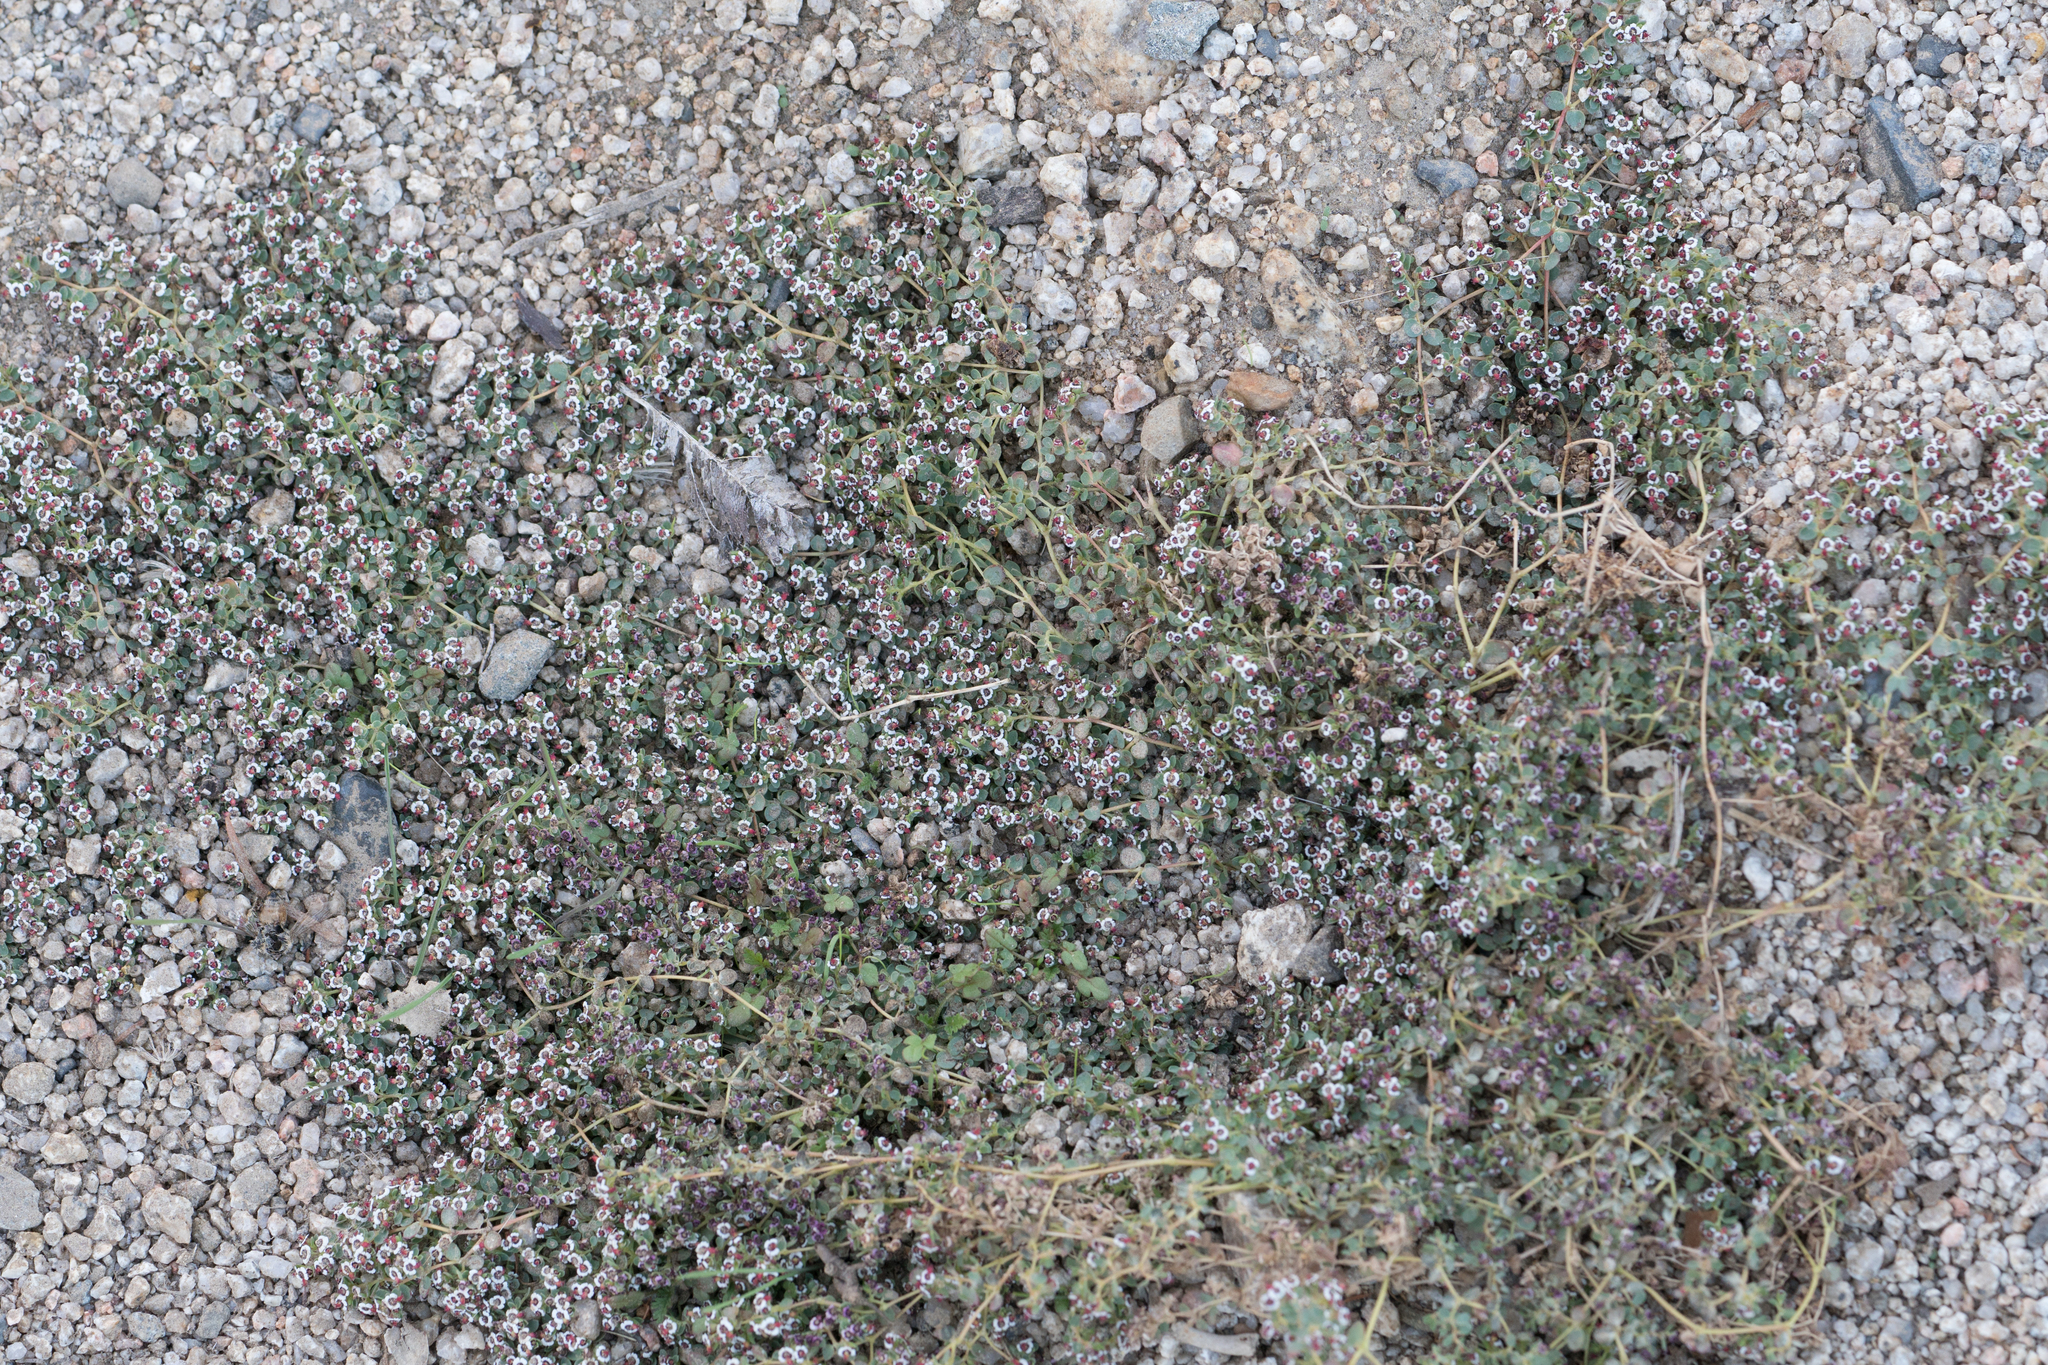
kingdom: Plantae
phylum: Tracheophyta
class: Magnoliopsida
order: Malpighiales
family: Euphorbiaceae
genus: Euphorbia
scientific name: Euphorbia polycarpa
